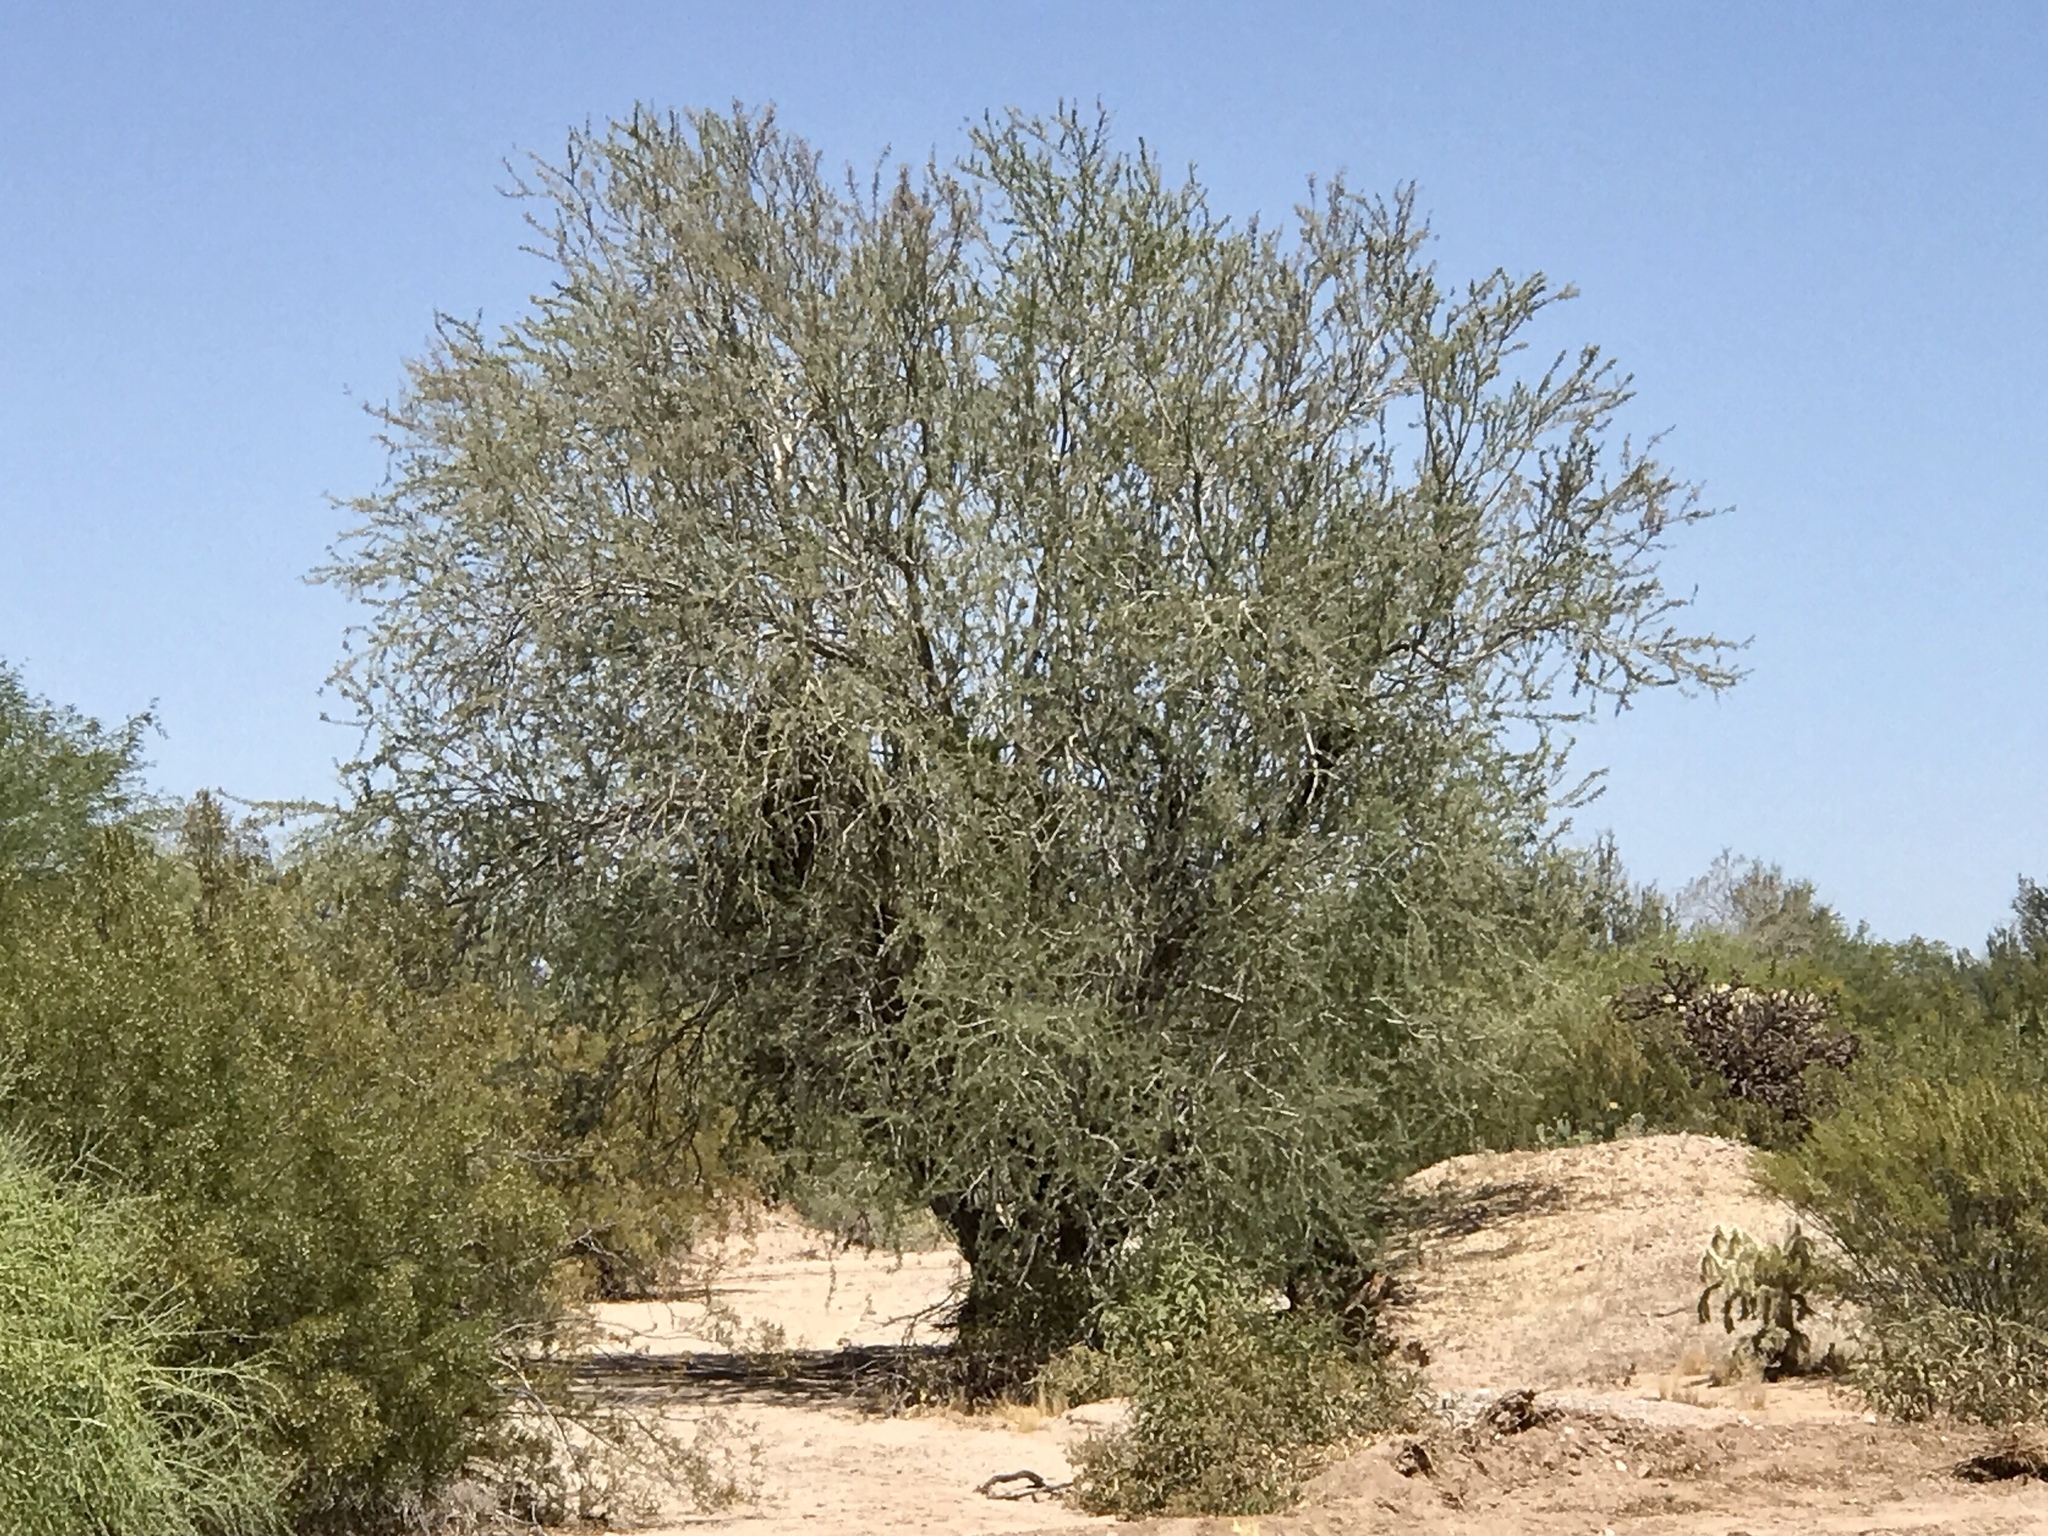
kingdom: Plantae
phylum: Tracheophyta
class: Magnoliopsida
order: Fabales
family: Fabaceae
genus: Olneya
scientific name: Olneya tesota
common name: Desert ironwood
